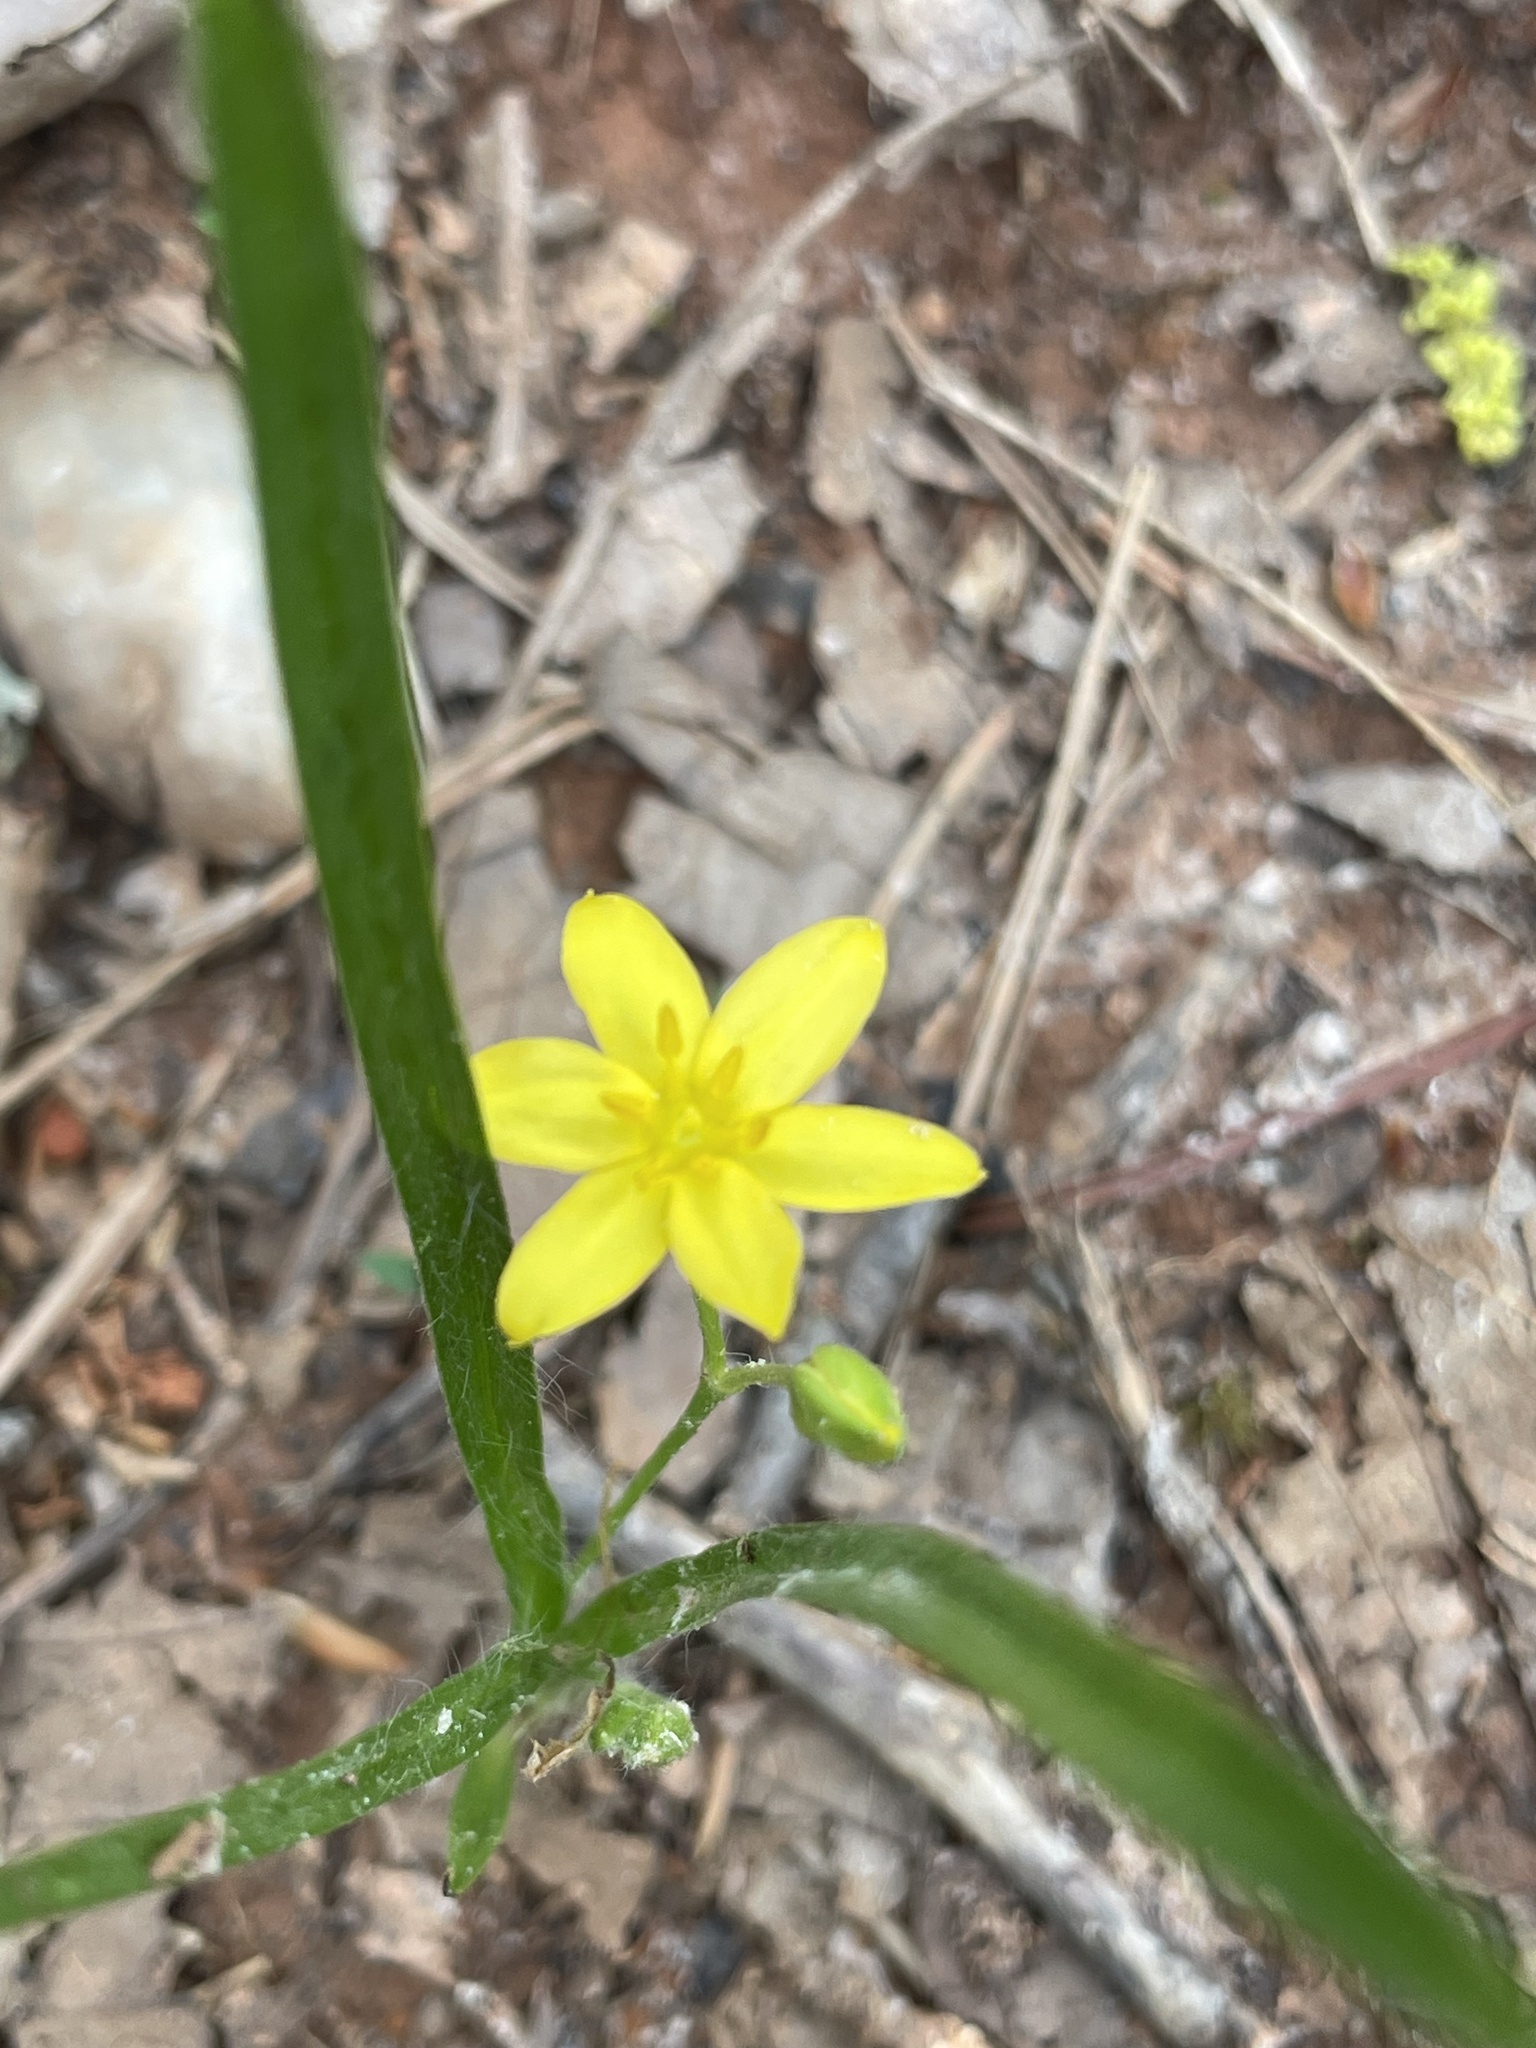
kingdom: Plantae
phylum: Tracheophyta
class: Liliopsida
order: Asparagales
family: Hypoxidaceae
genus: Hypoxis
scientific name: Hypoxis hirsuta
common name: Common goldstar
